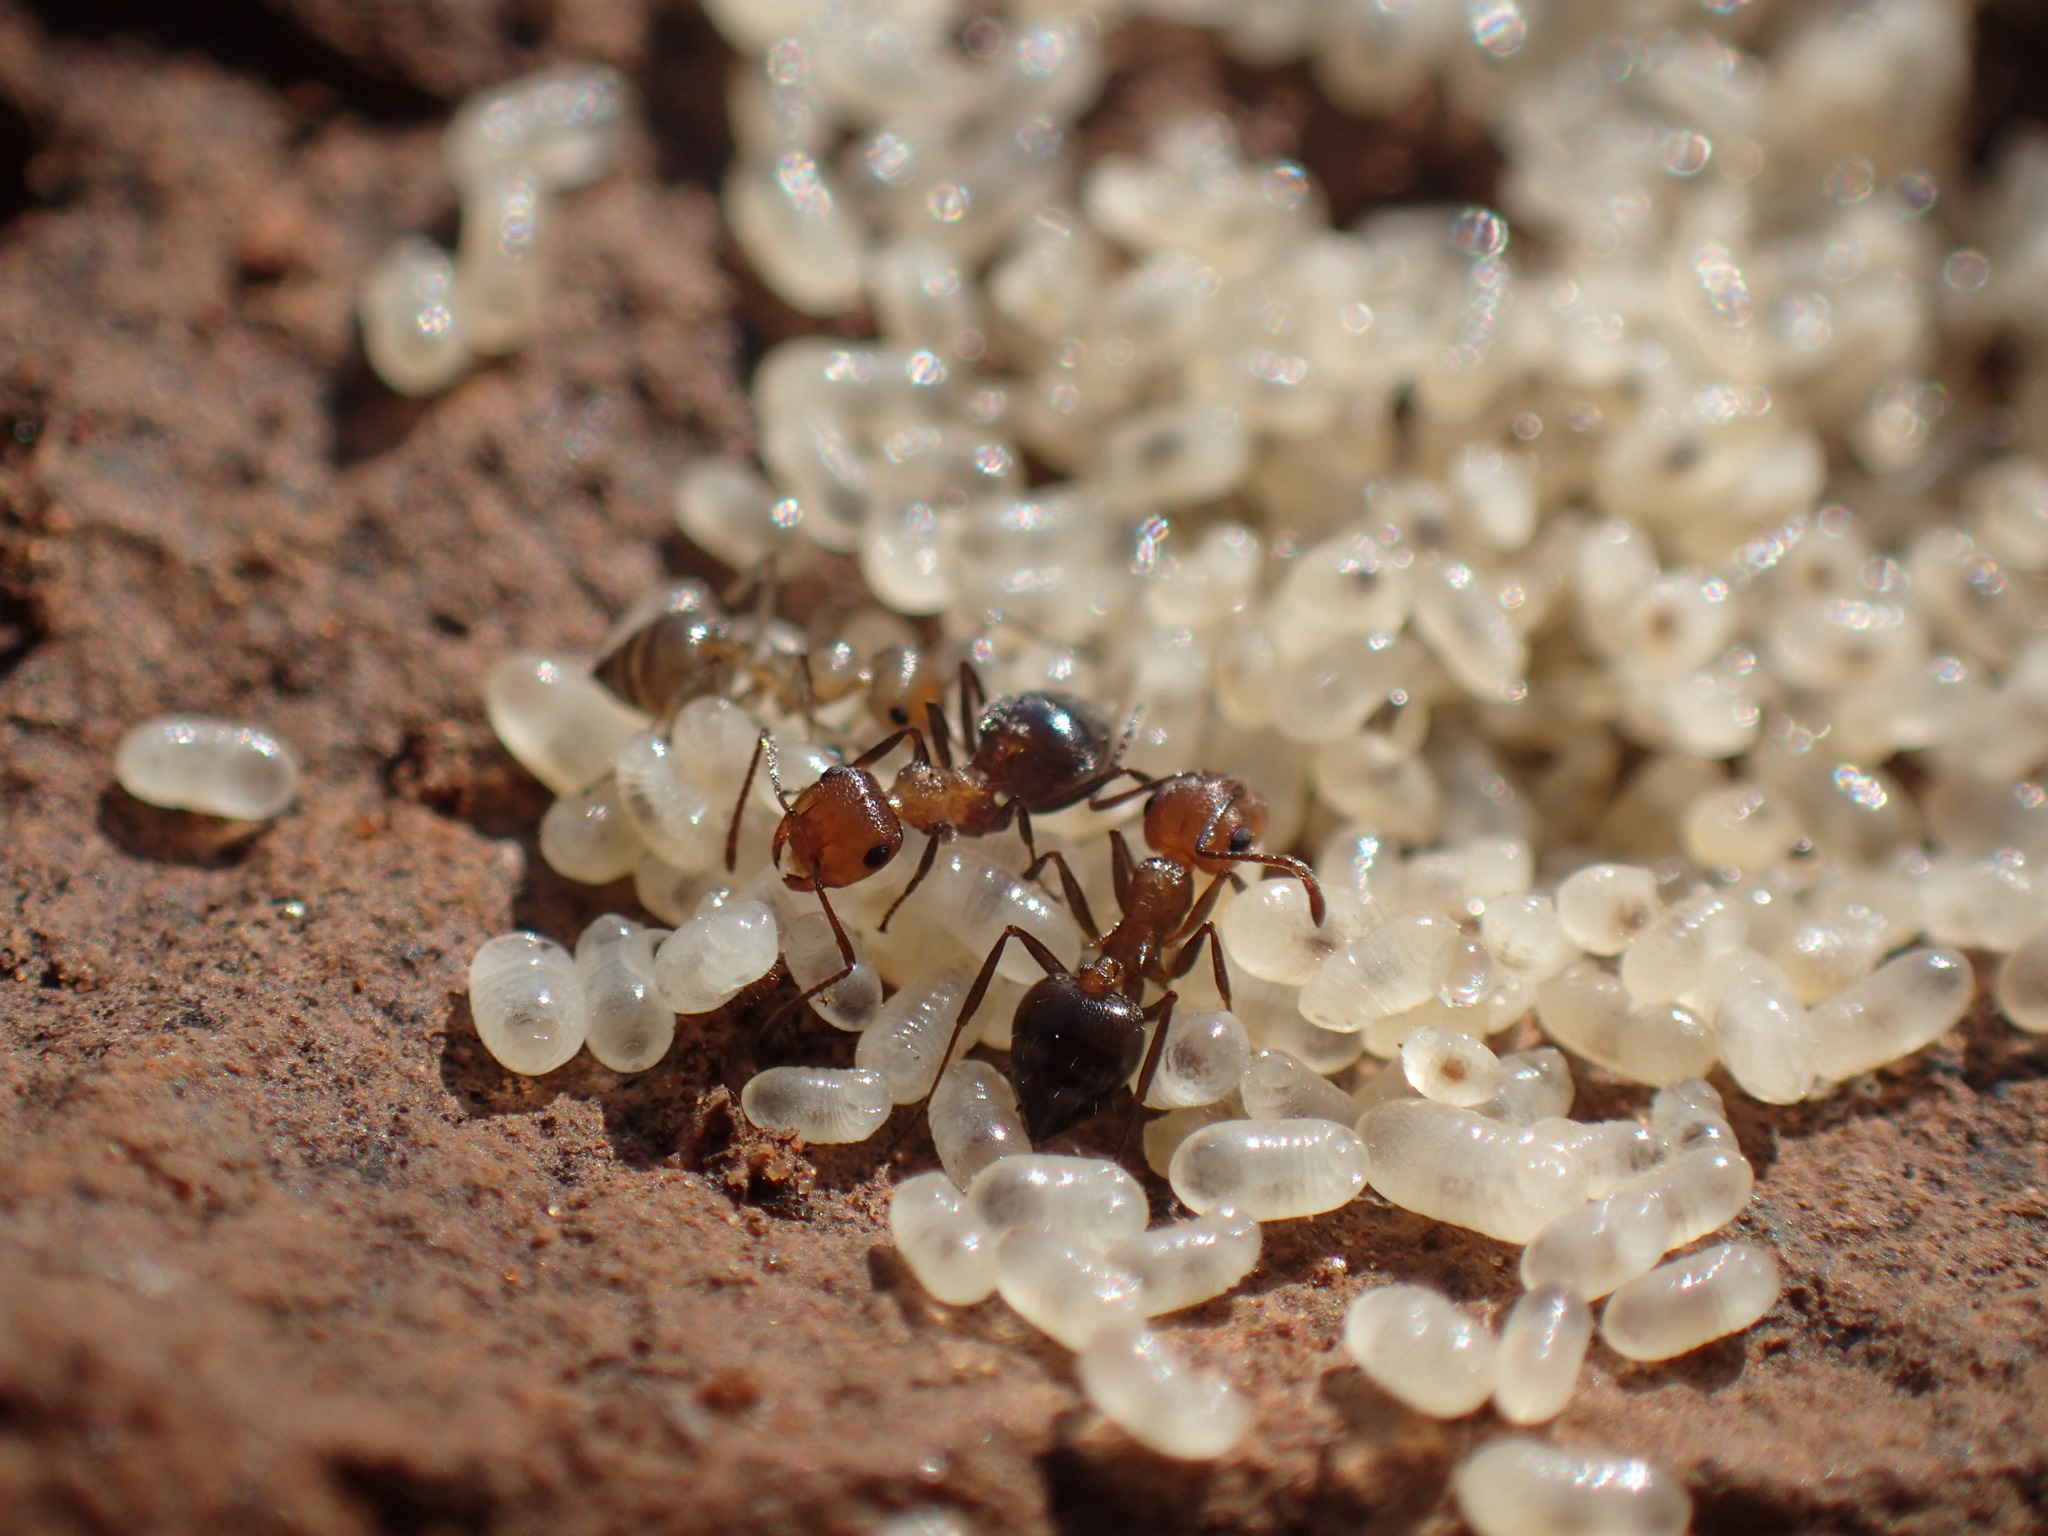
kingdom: Animalia
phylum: Arthropoda
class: Insecta
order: Hymenoptera
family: Formicidae
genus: Crematogaster
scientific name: Crematogaster melanogaster
